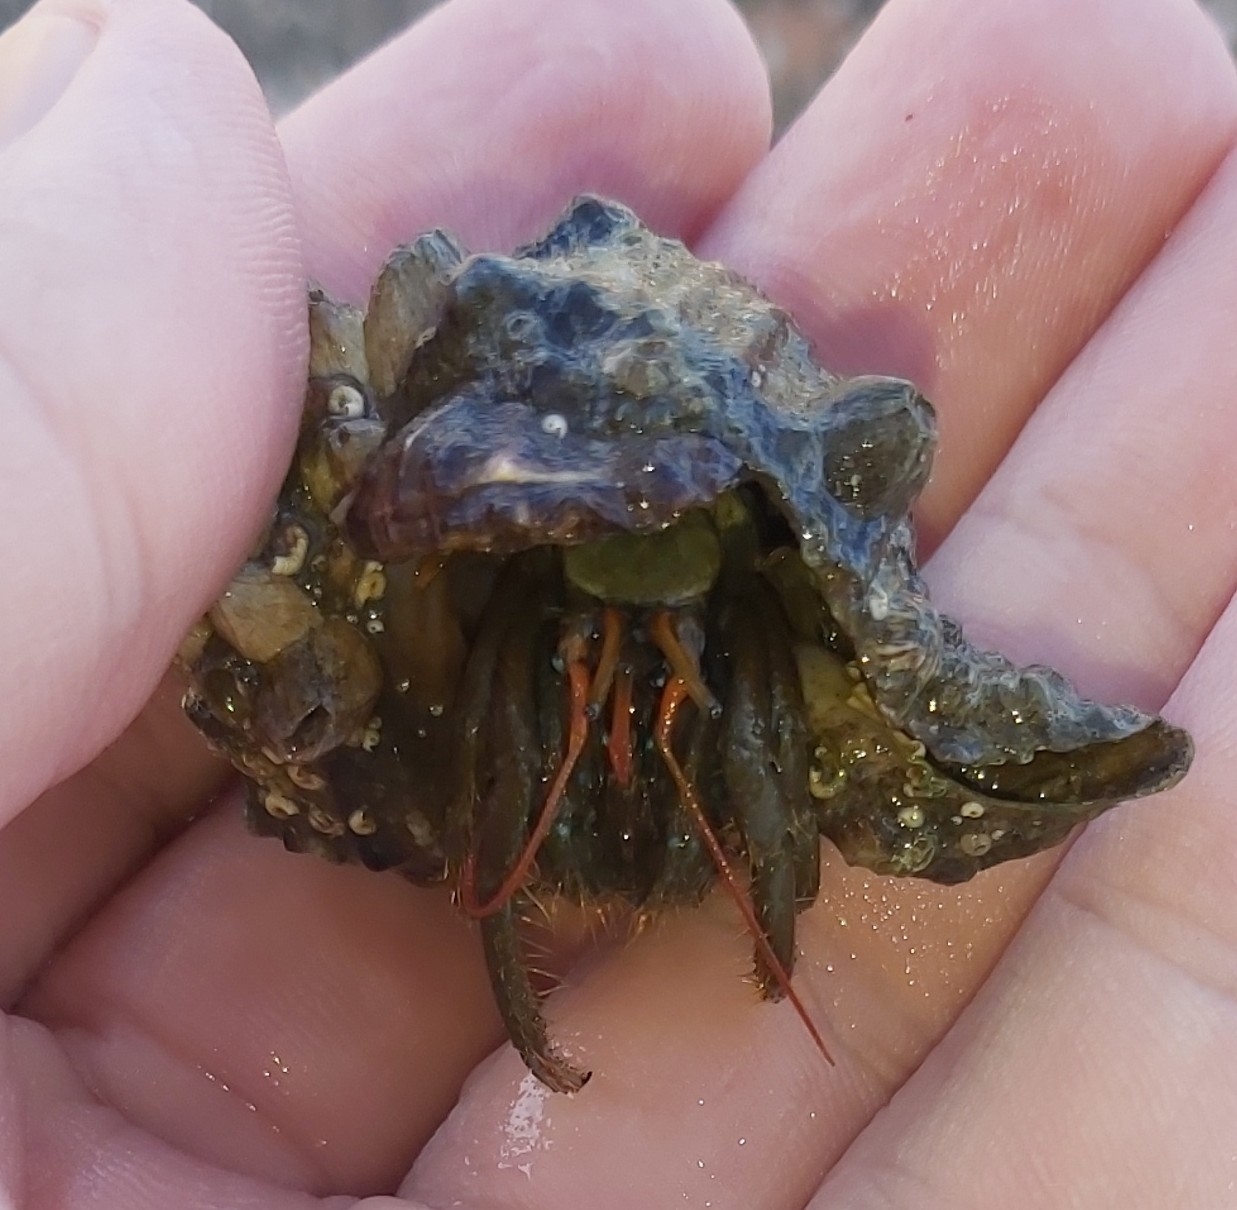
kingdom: Animalia
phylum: Arthropoda
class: Malacostraca
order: Decapoda
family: Diogenidae
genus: Clibanarius
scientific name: Clibanarius erythropus
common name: Hermit crab
